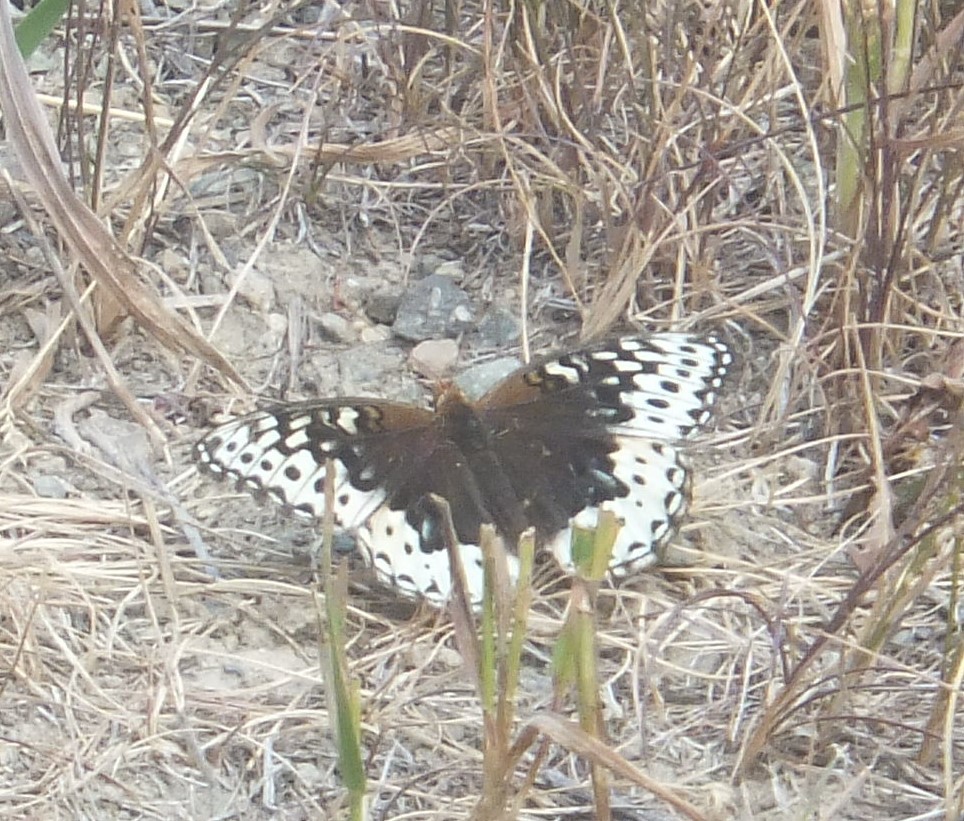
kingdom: Animalia
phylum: Arthropoda
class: Insecta
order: Lepidoptera
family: Nymphalidae
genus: Speyeria
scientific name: Speyeria cybele
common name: Great spangled fritillary
